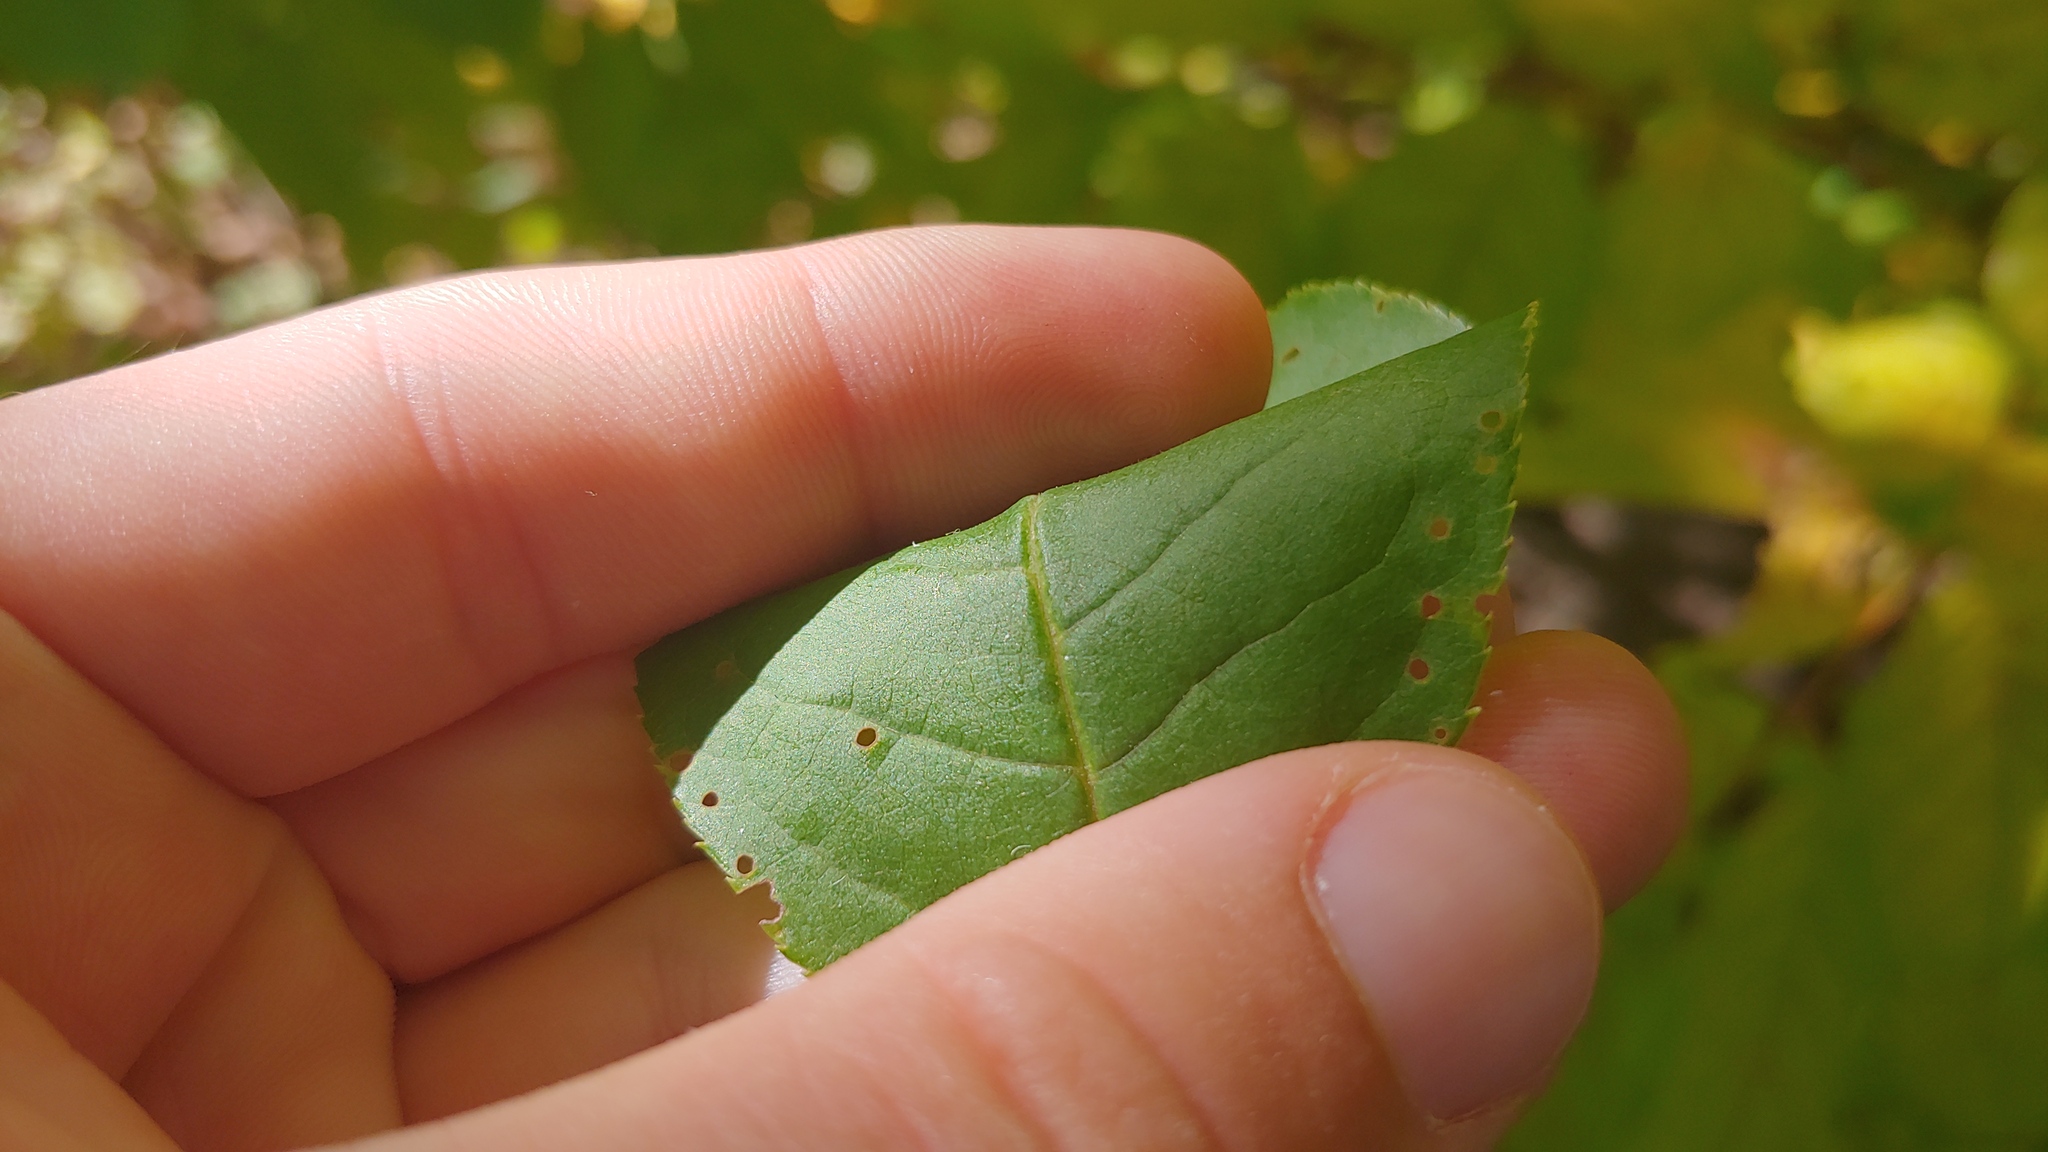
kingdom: Plantae
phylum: Tracheophyta
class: Magnoliopsida
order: Rosales
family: Rosaceae
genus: Prunus
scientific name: Prunus virginiana
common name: Chokecherry
